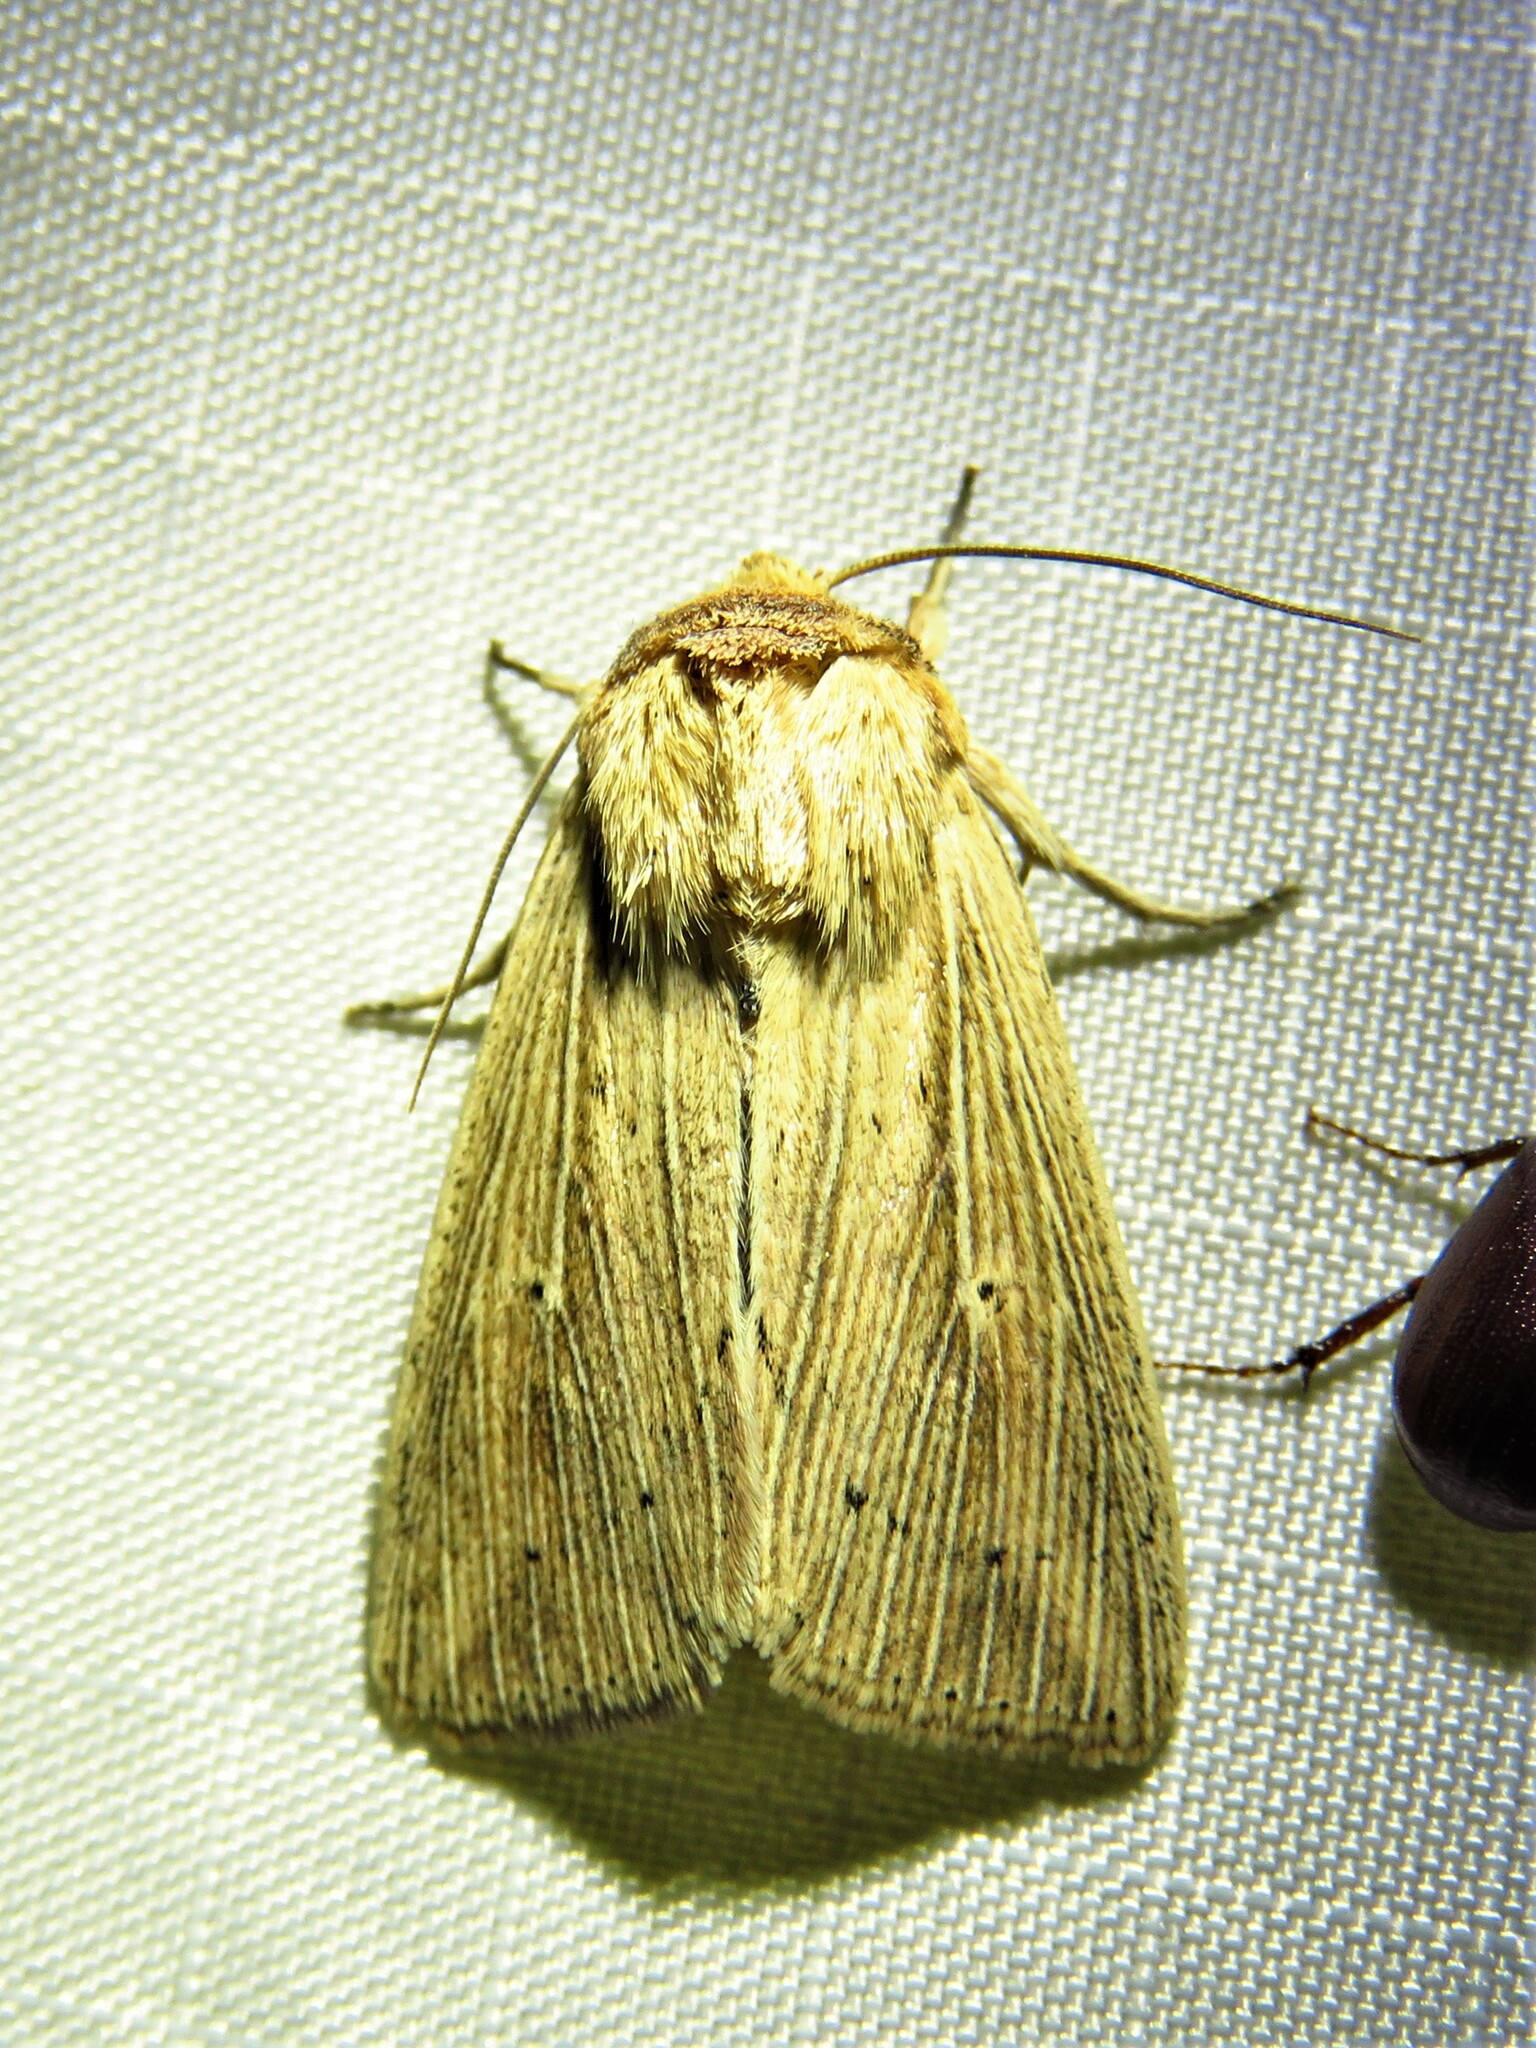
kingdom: Animalia
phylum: Arthropoda
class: Insecta
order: Lepidoptera
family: Noctuidae
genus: Leucania
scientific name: Leucania adjuta
